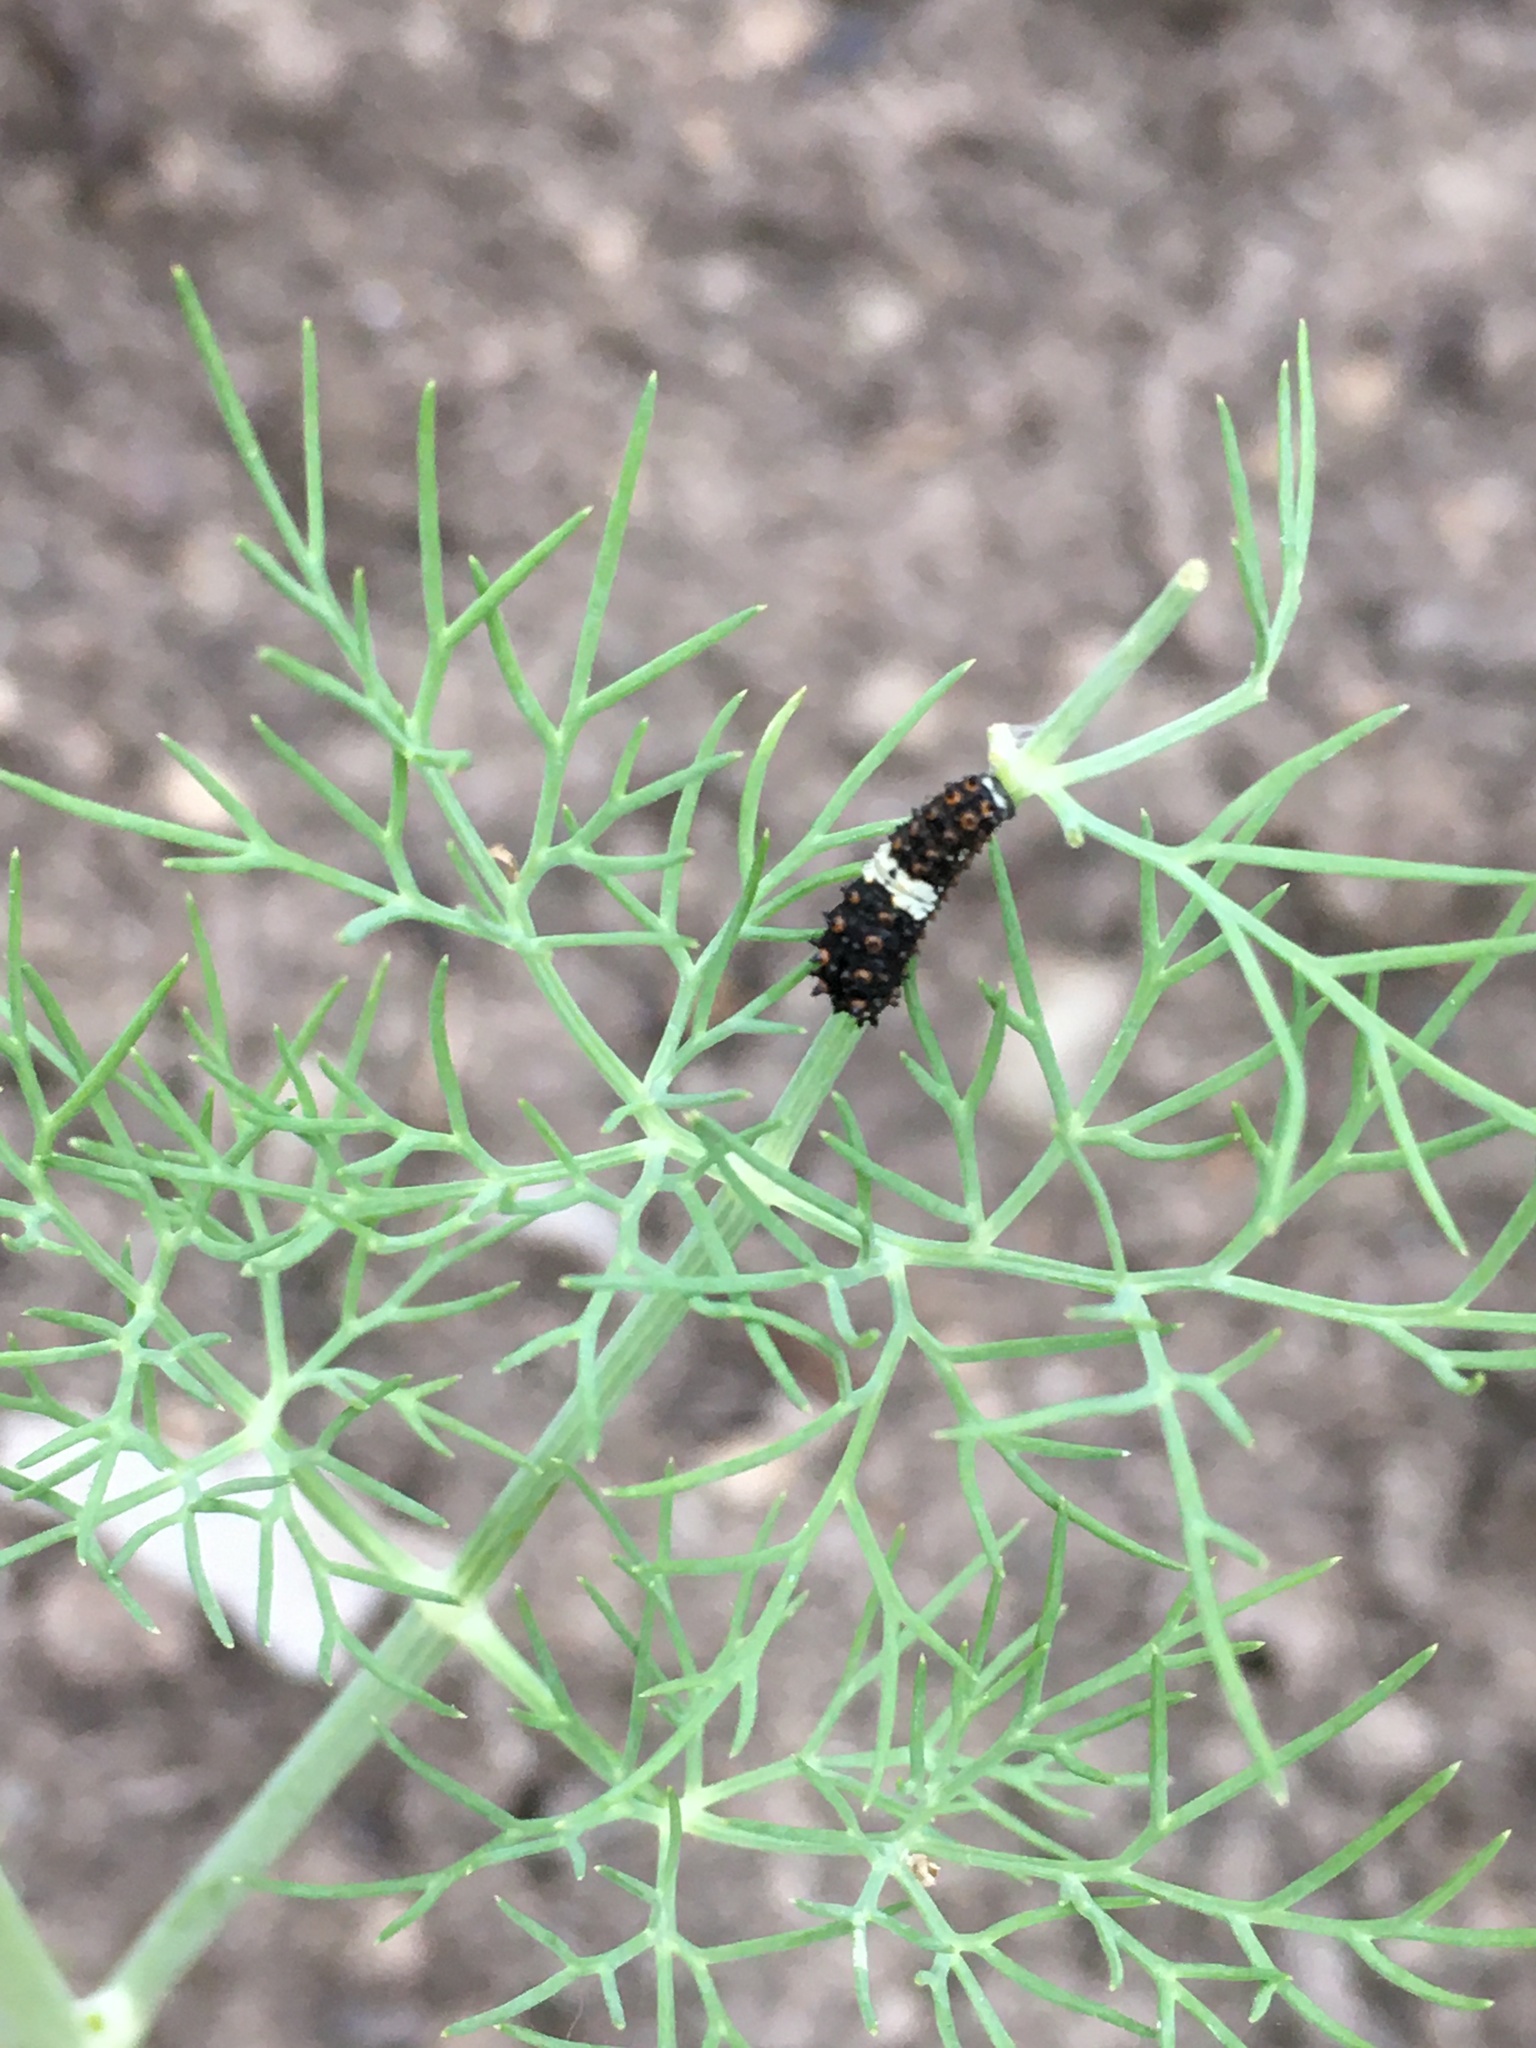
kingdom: Animalia
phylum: Arthropoda
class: Insecta
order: Lepidoptera
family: Papilionidae
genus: Papilio
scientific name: Papilio polyxenes
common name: Black swallowtail
